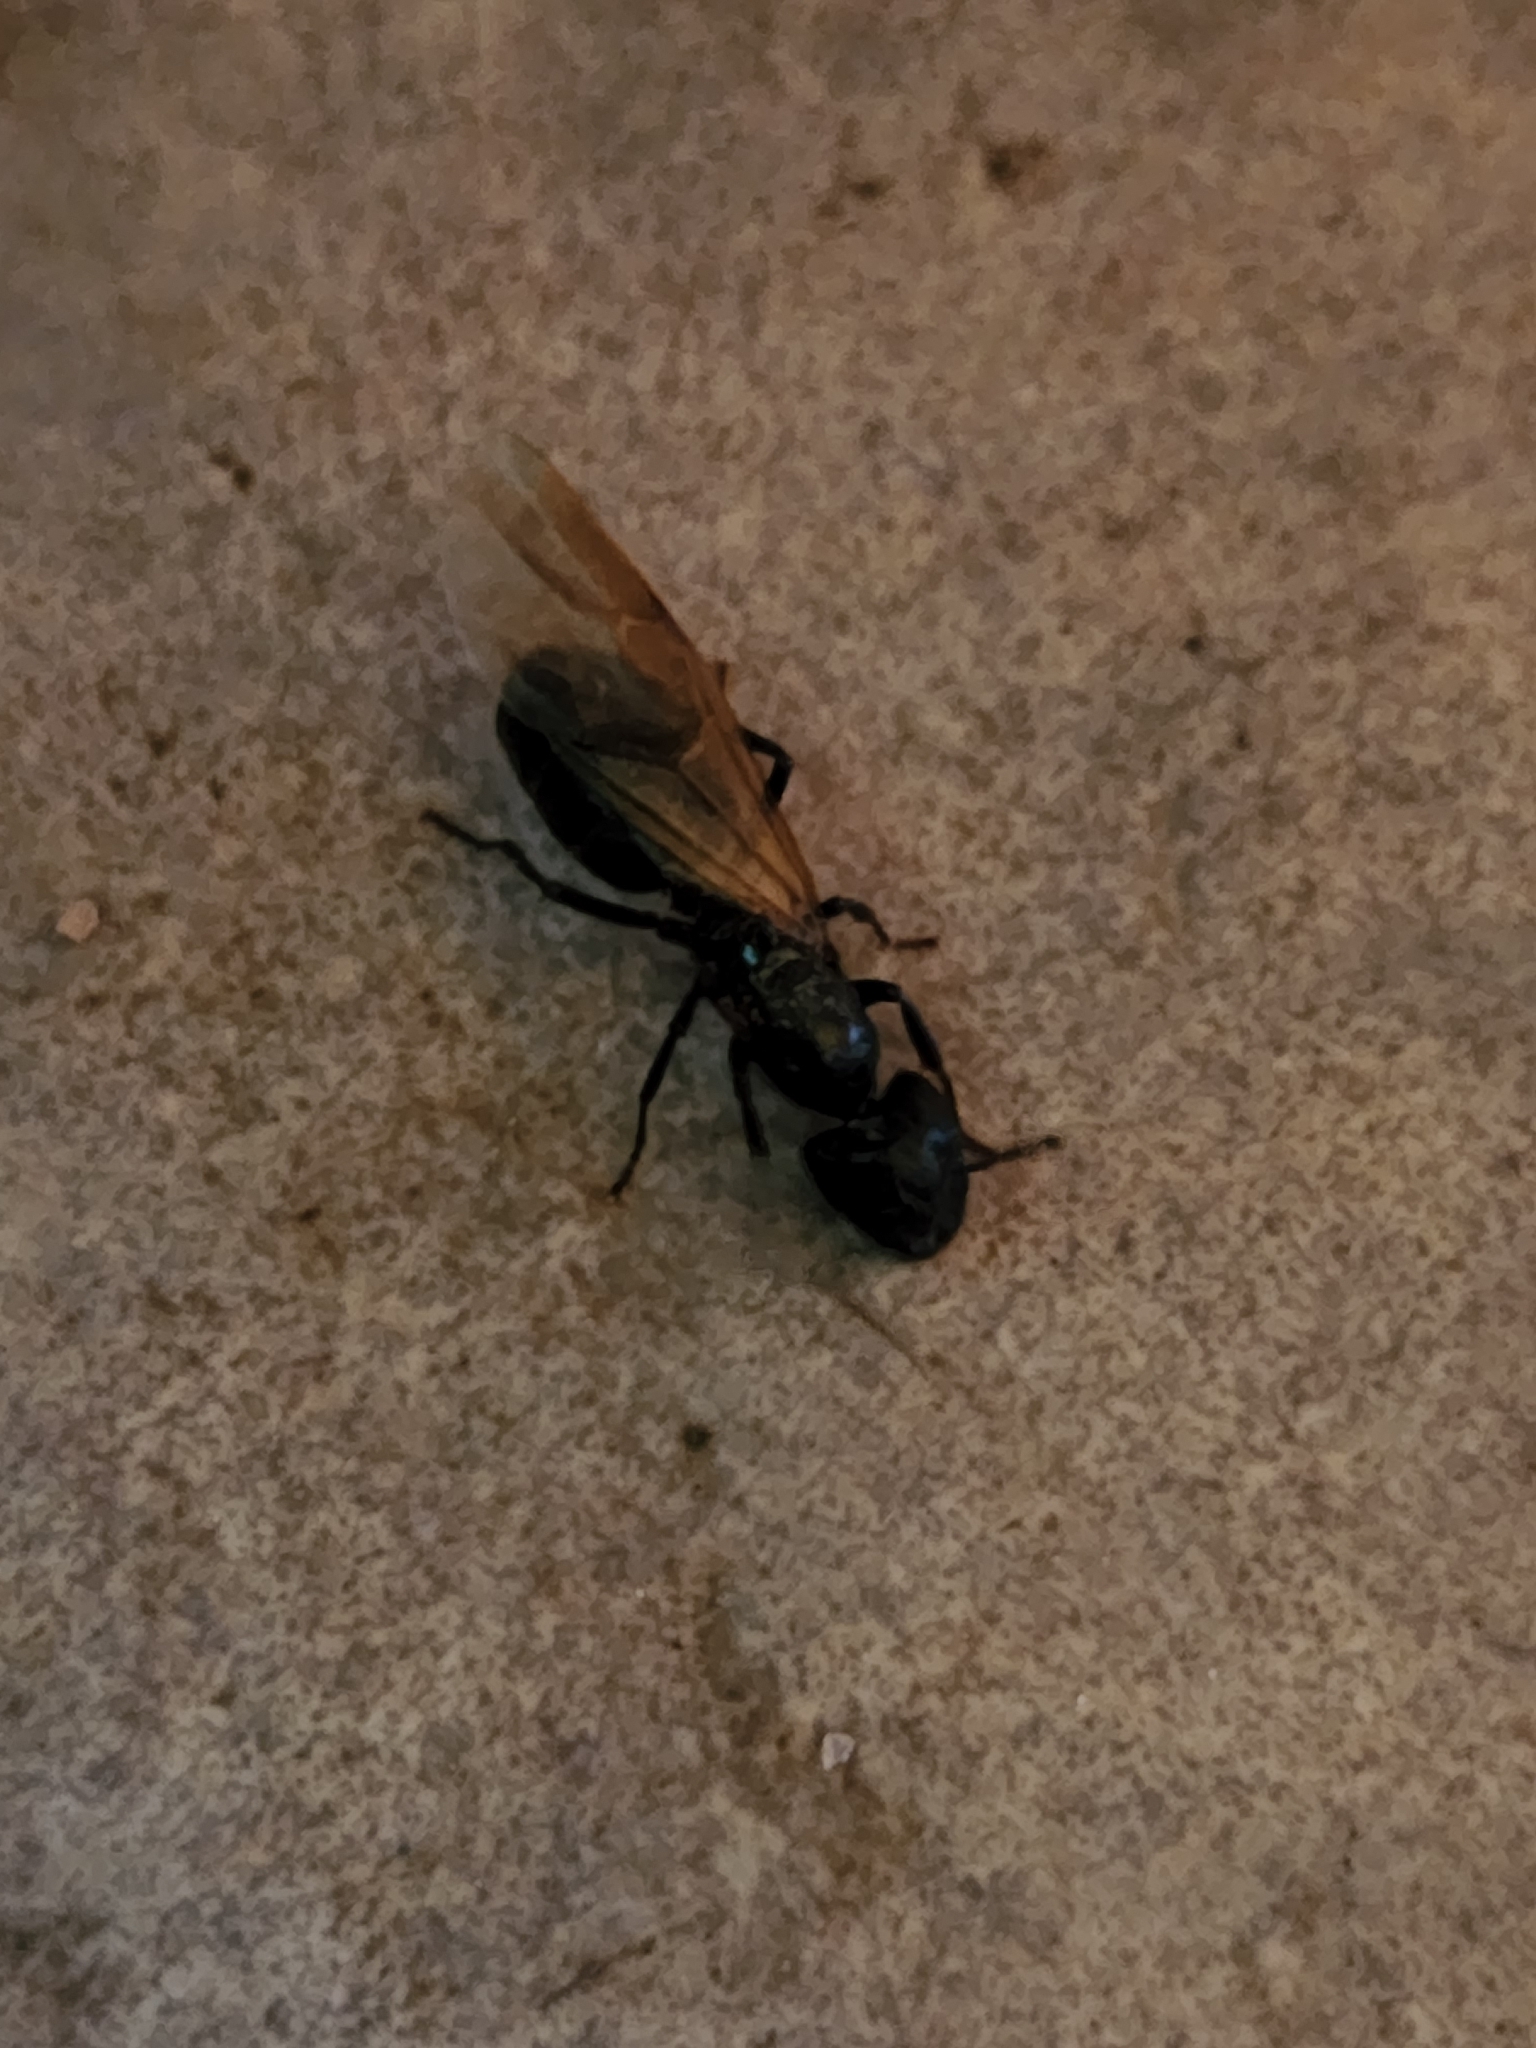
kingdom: Animalia
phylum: Arthropoda
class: Insecta
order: Hymenoptera
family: Formicidae
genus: Camponotus
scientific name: Camponotus pennsylvanicus
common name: Black carpenter ant
